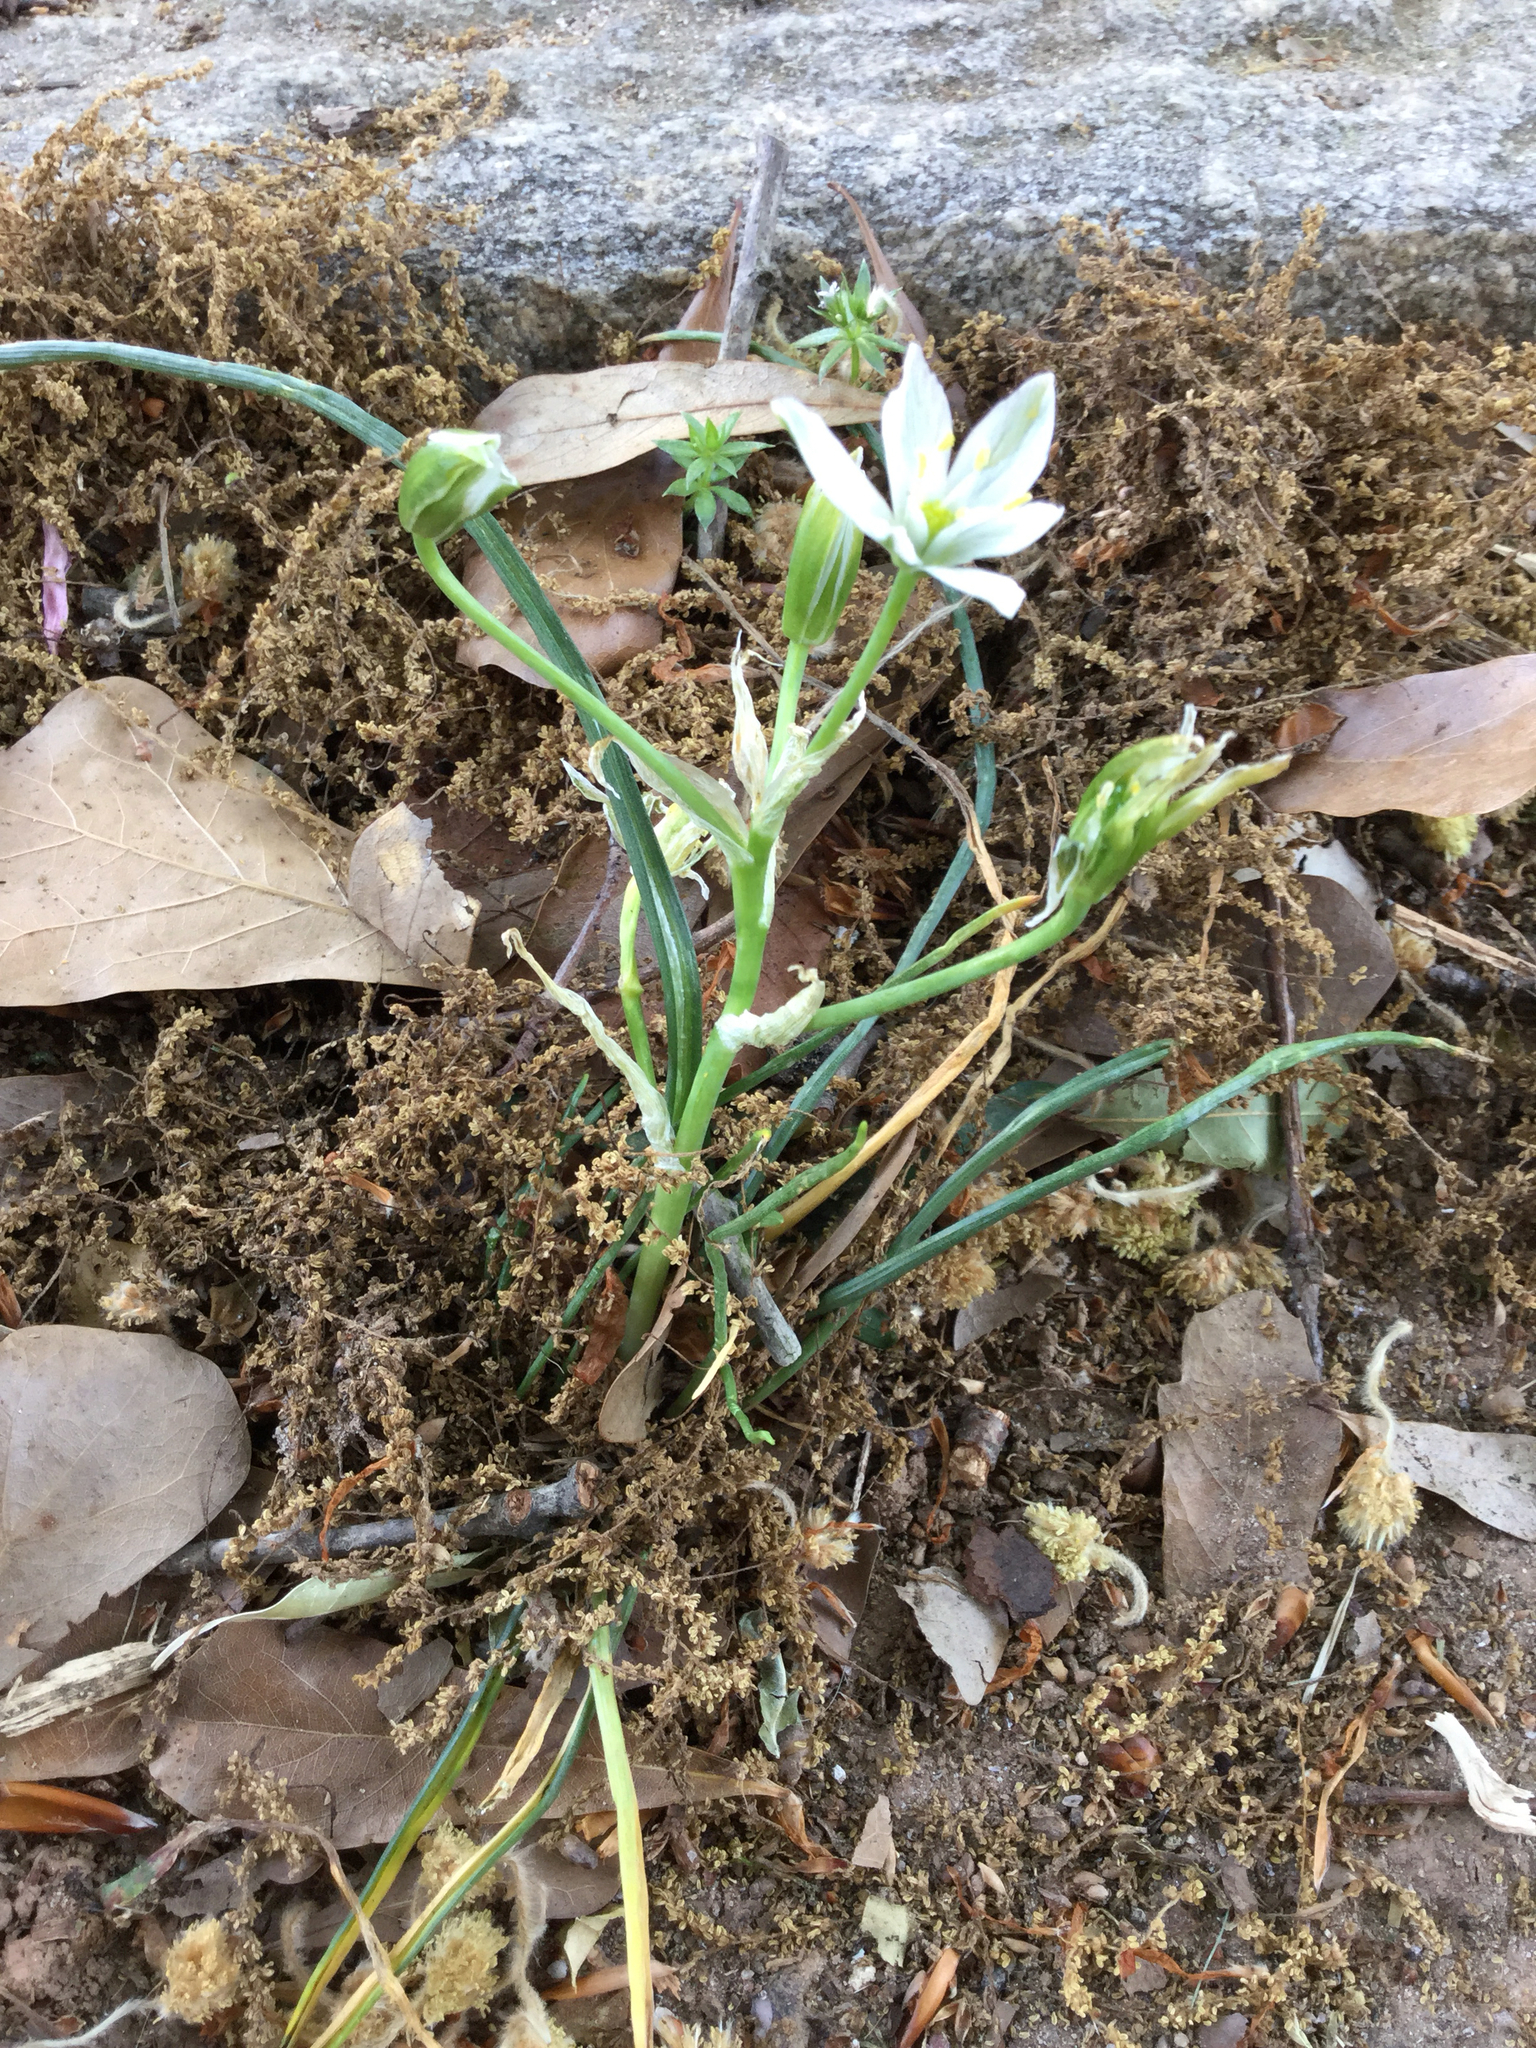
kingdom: Plantae
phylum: Tracheophyta
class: Liliopsida
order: Asparagales
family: Asparagaceae
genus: Ornithogalum
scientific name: Ornithogalum umbellatum
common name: Garden star-of-bethlehem
